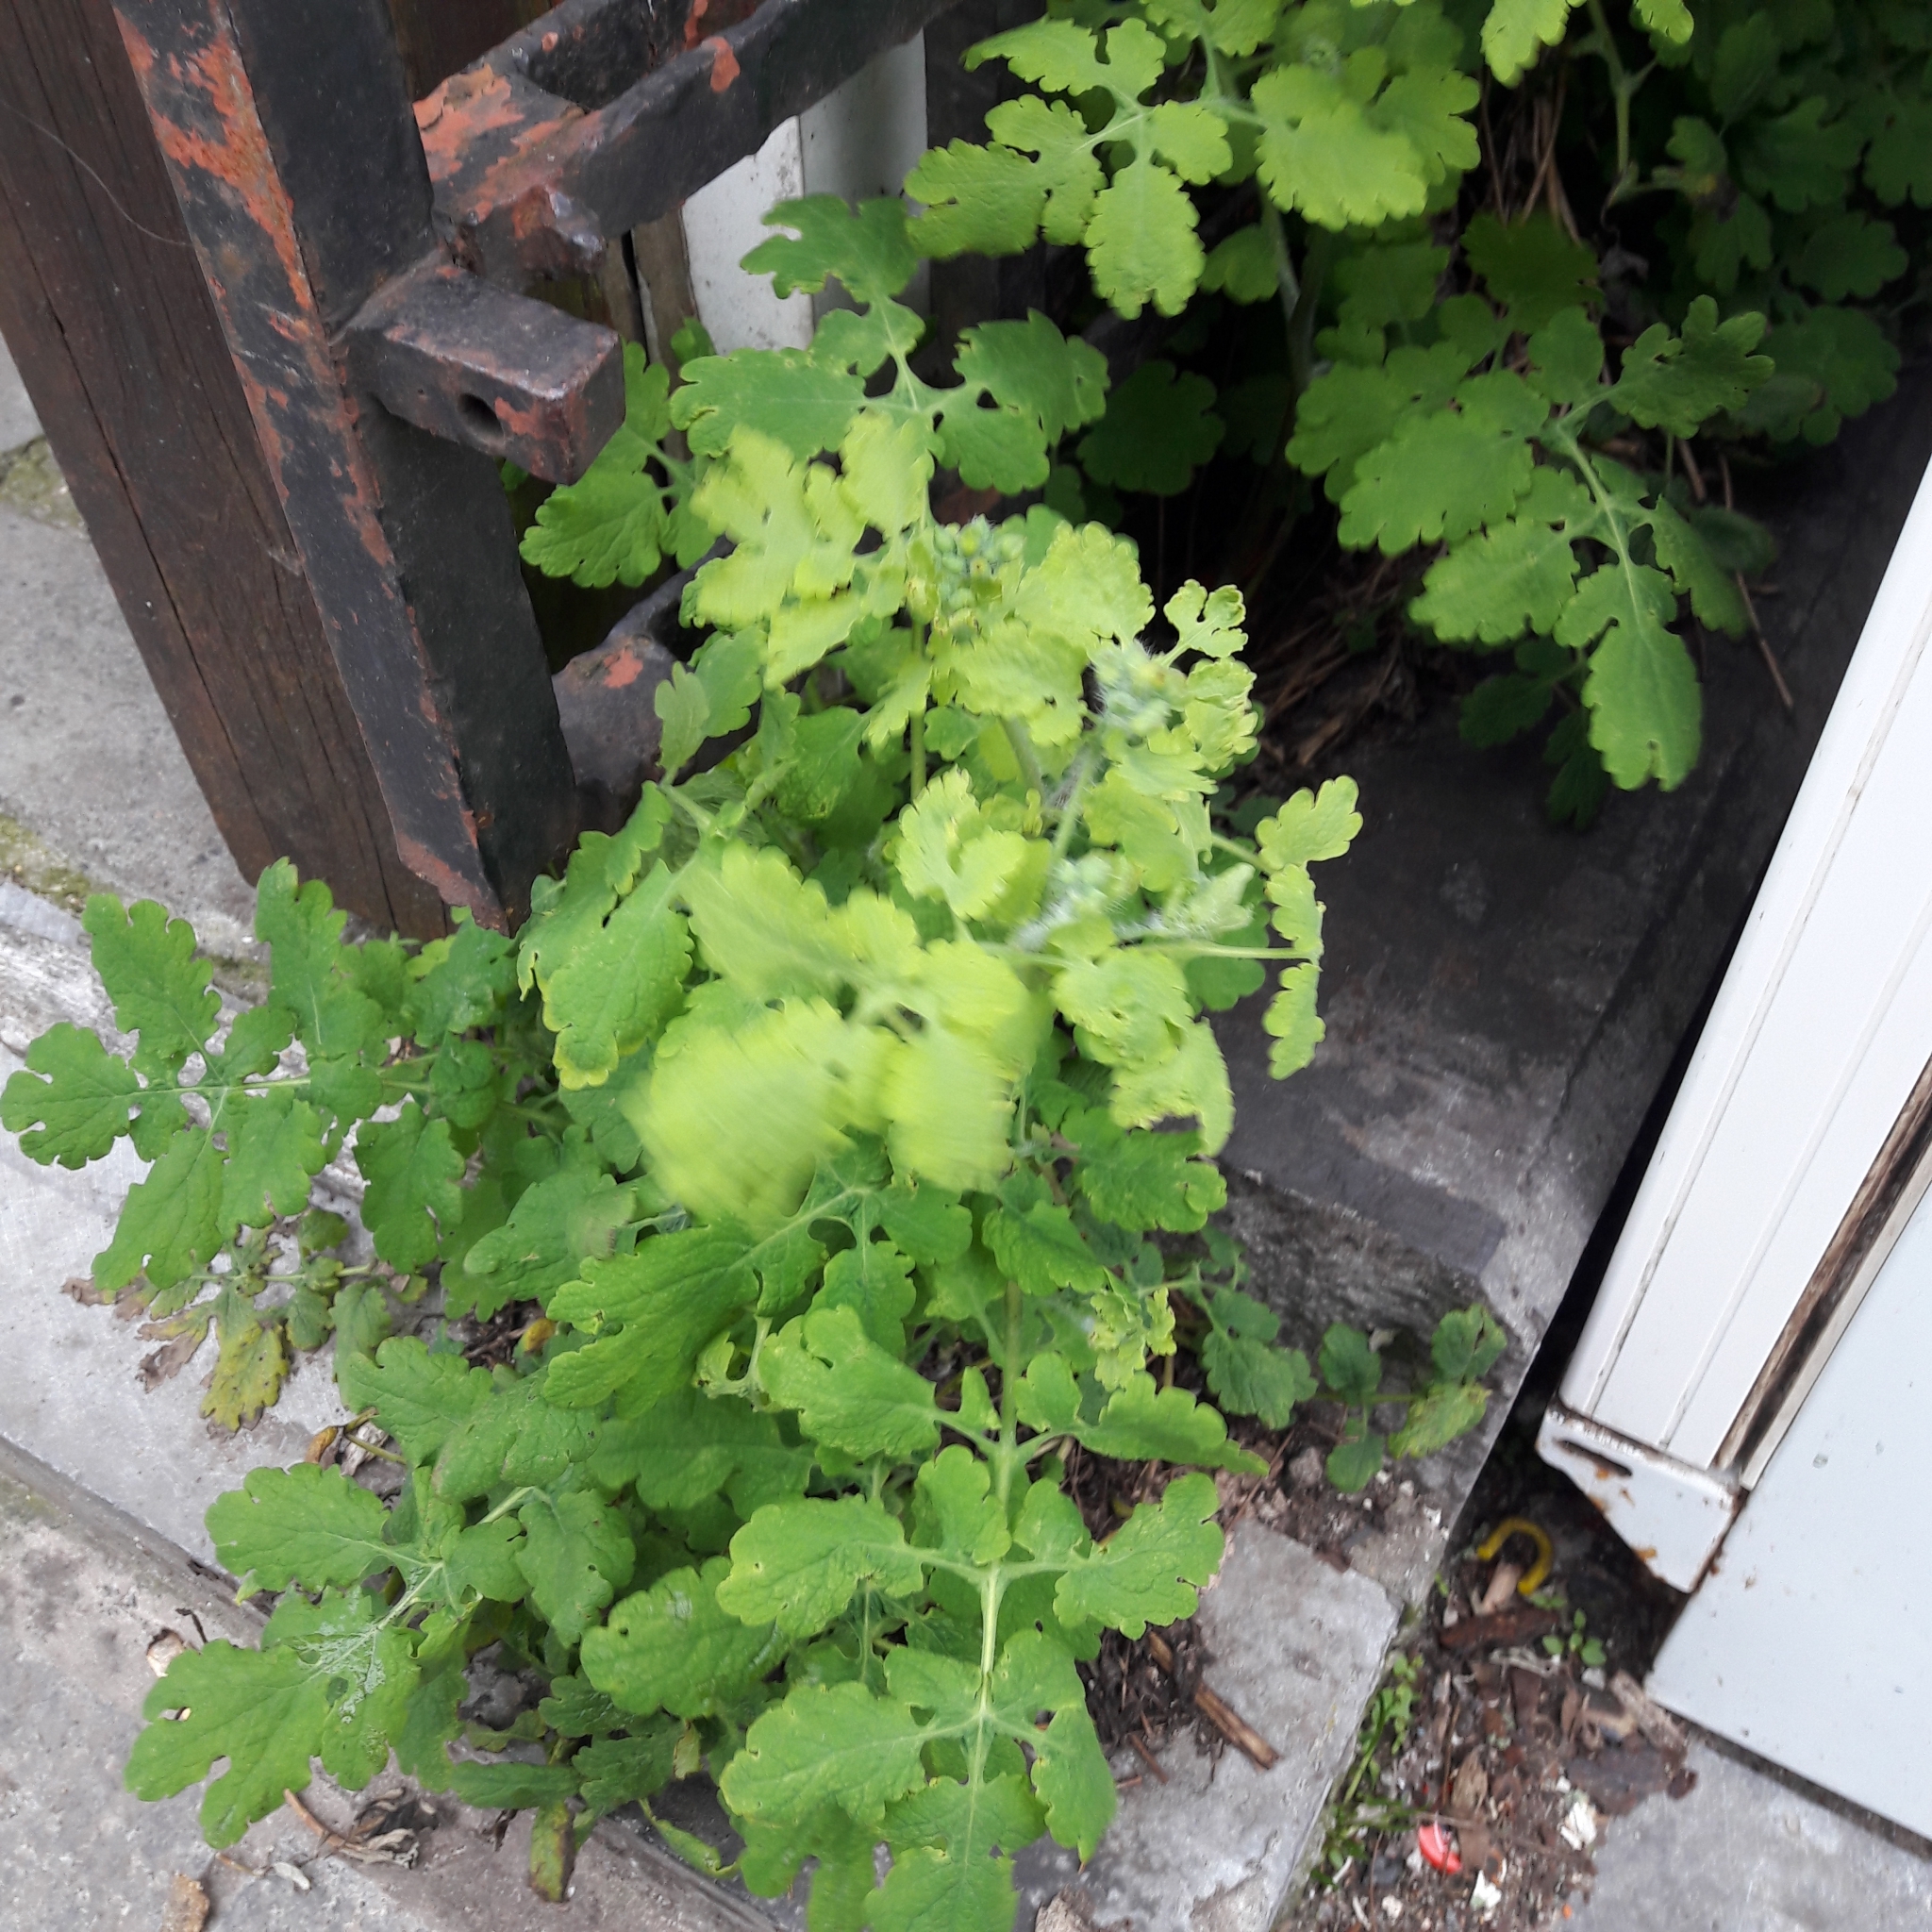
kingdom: Plantae
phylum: Tracheophyta
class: Magnoliopsida
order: Ranunculales
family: Papaveraceae
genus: Chelidonium
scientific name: Chelidonium majus
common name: Greater celandine
